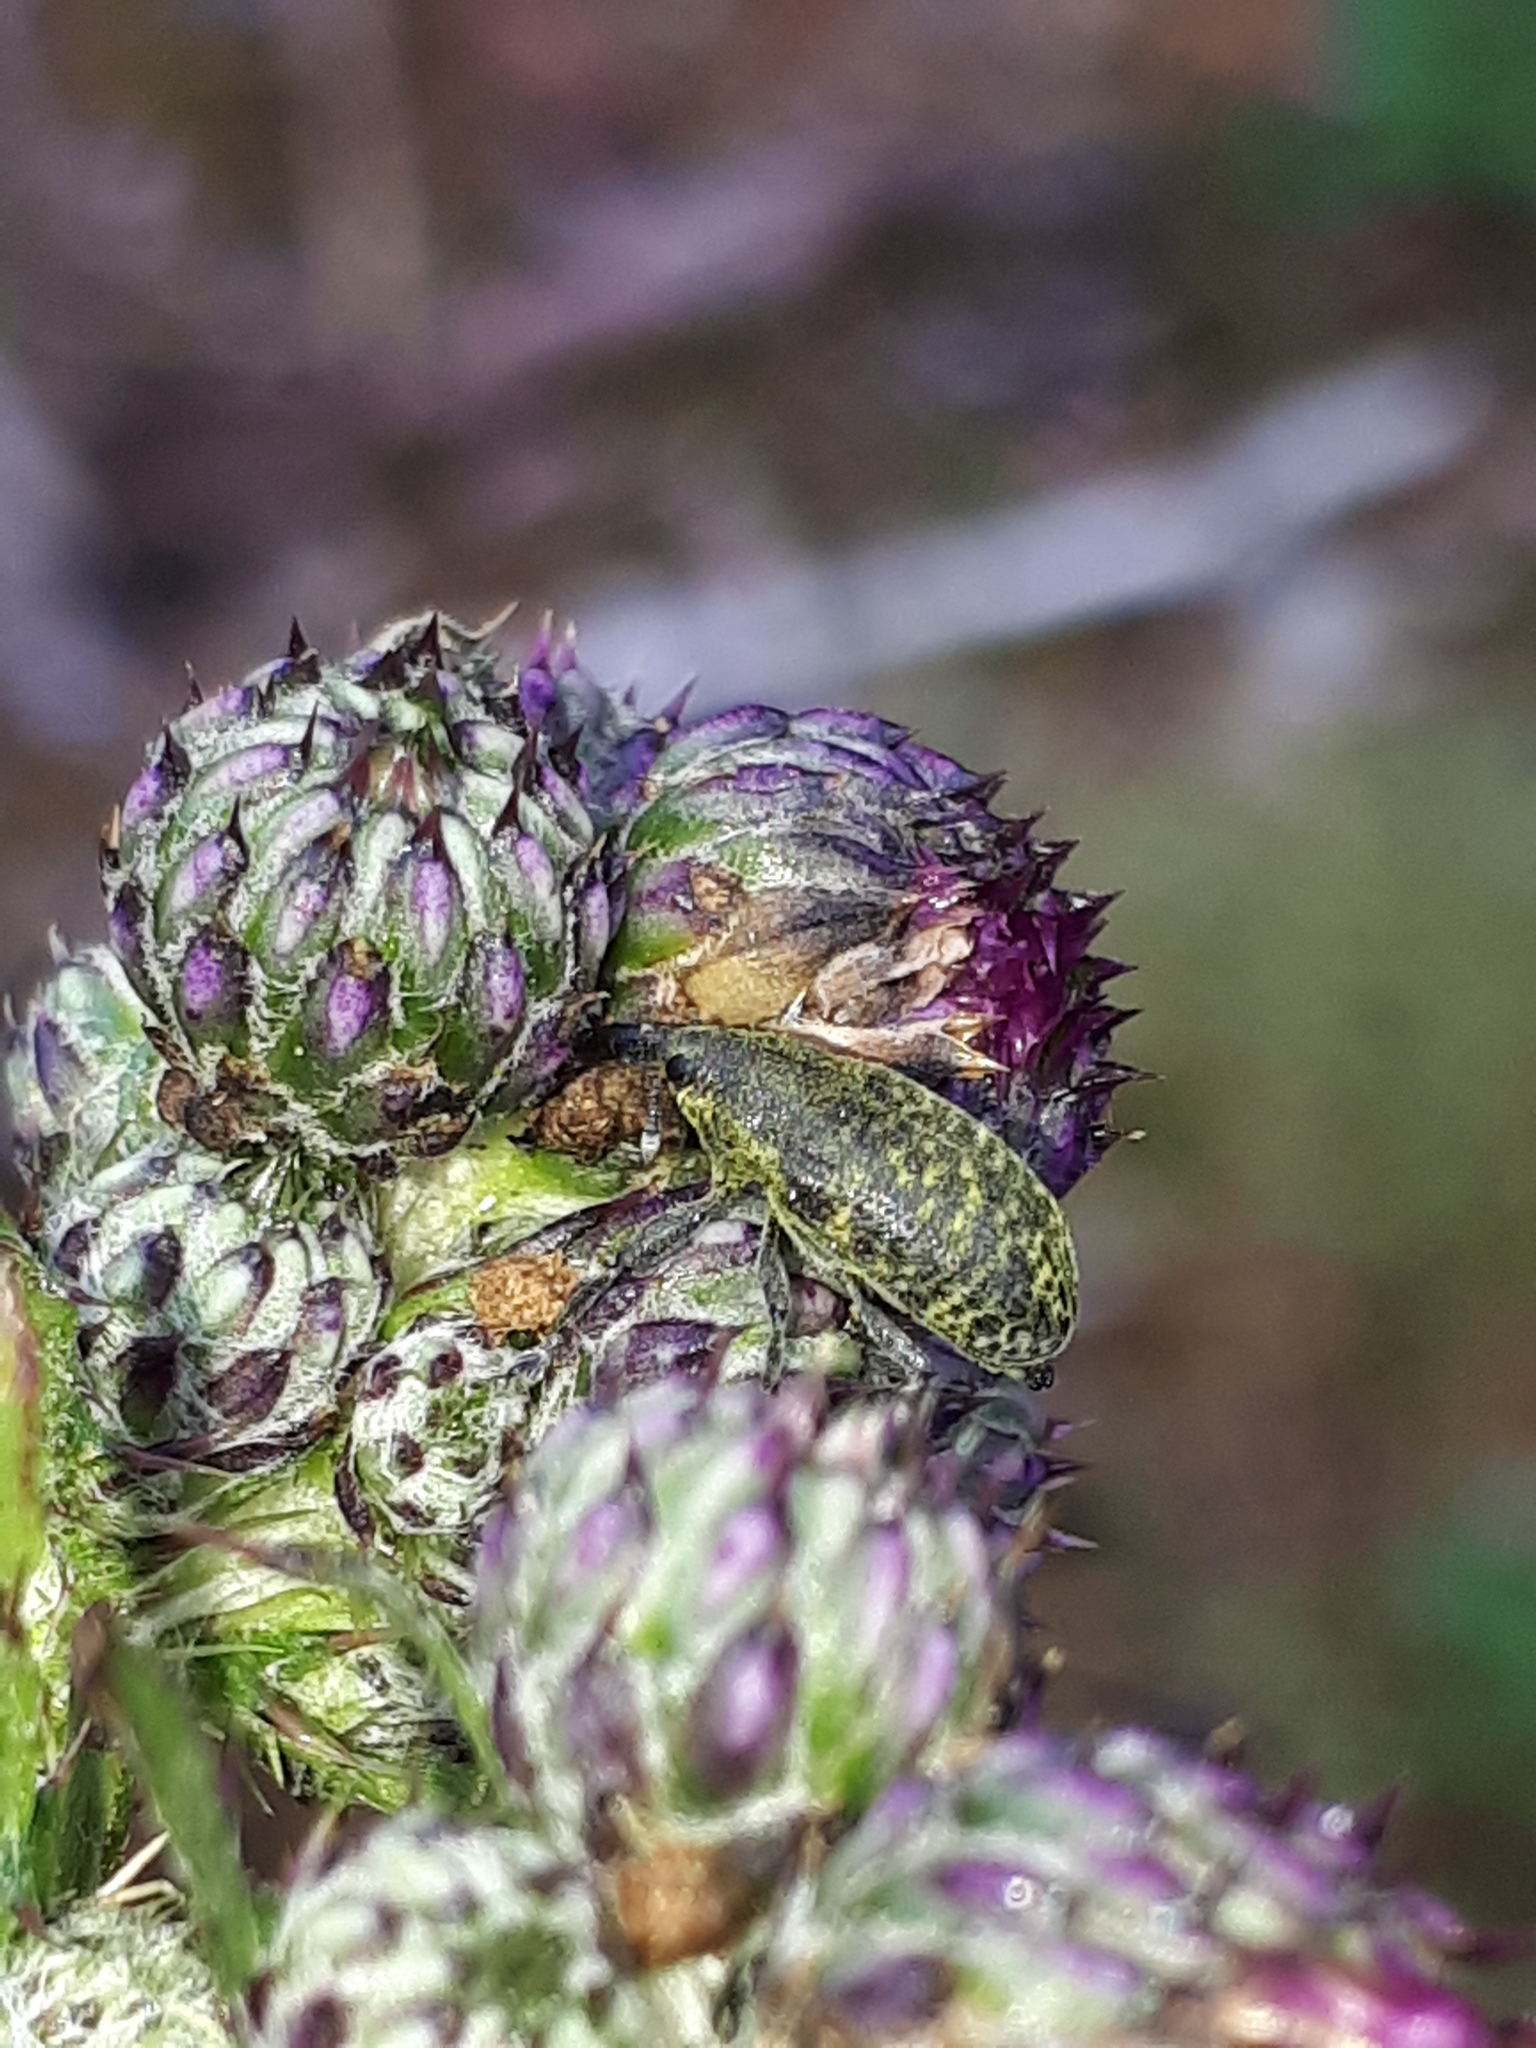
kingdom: Animalia
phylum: Arthropoda
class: Insecta
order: Coleoptera
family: Curculionidae
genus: Larinus
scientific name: Larinus carlinae
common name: Weevil
